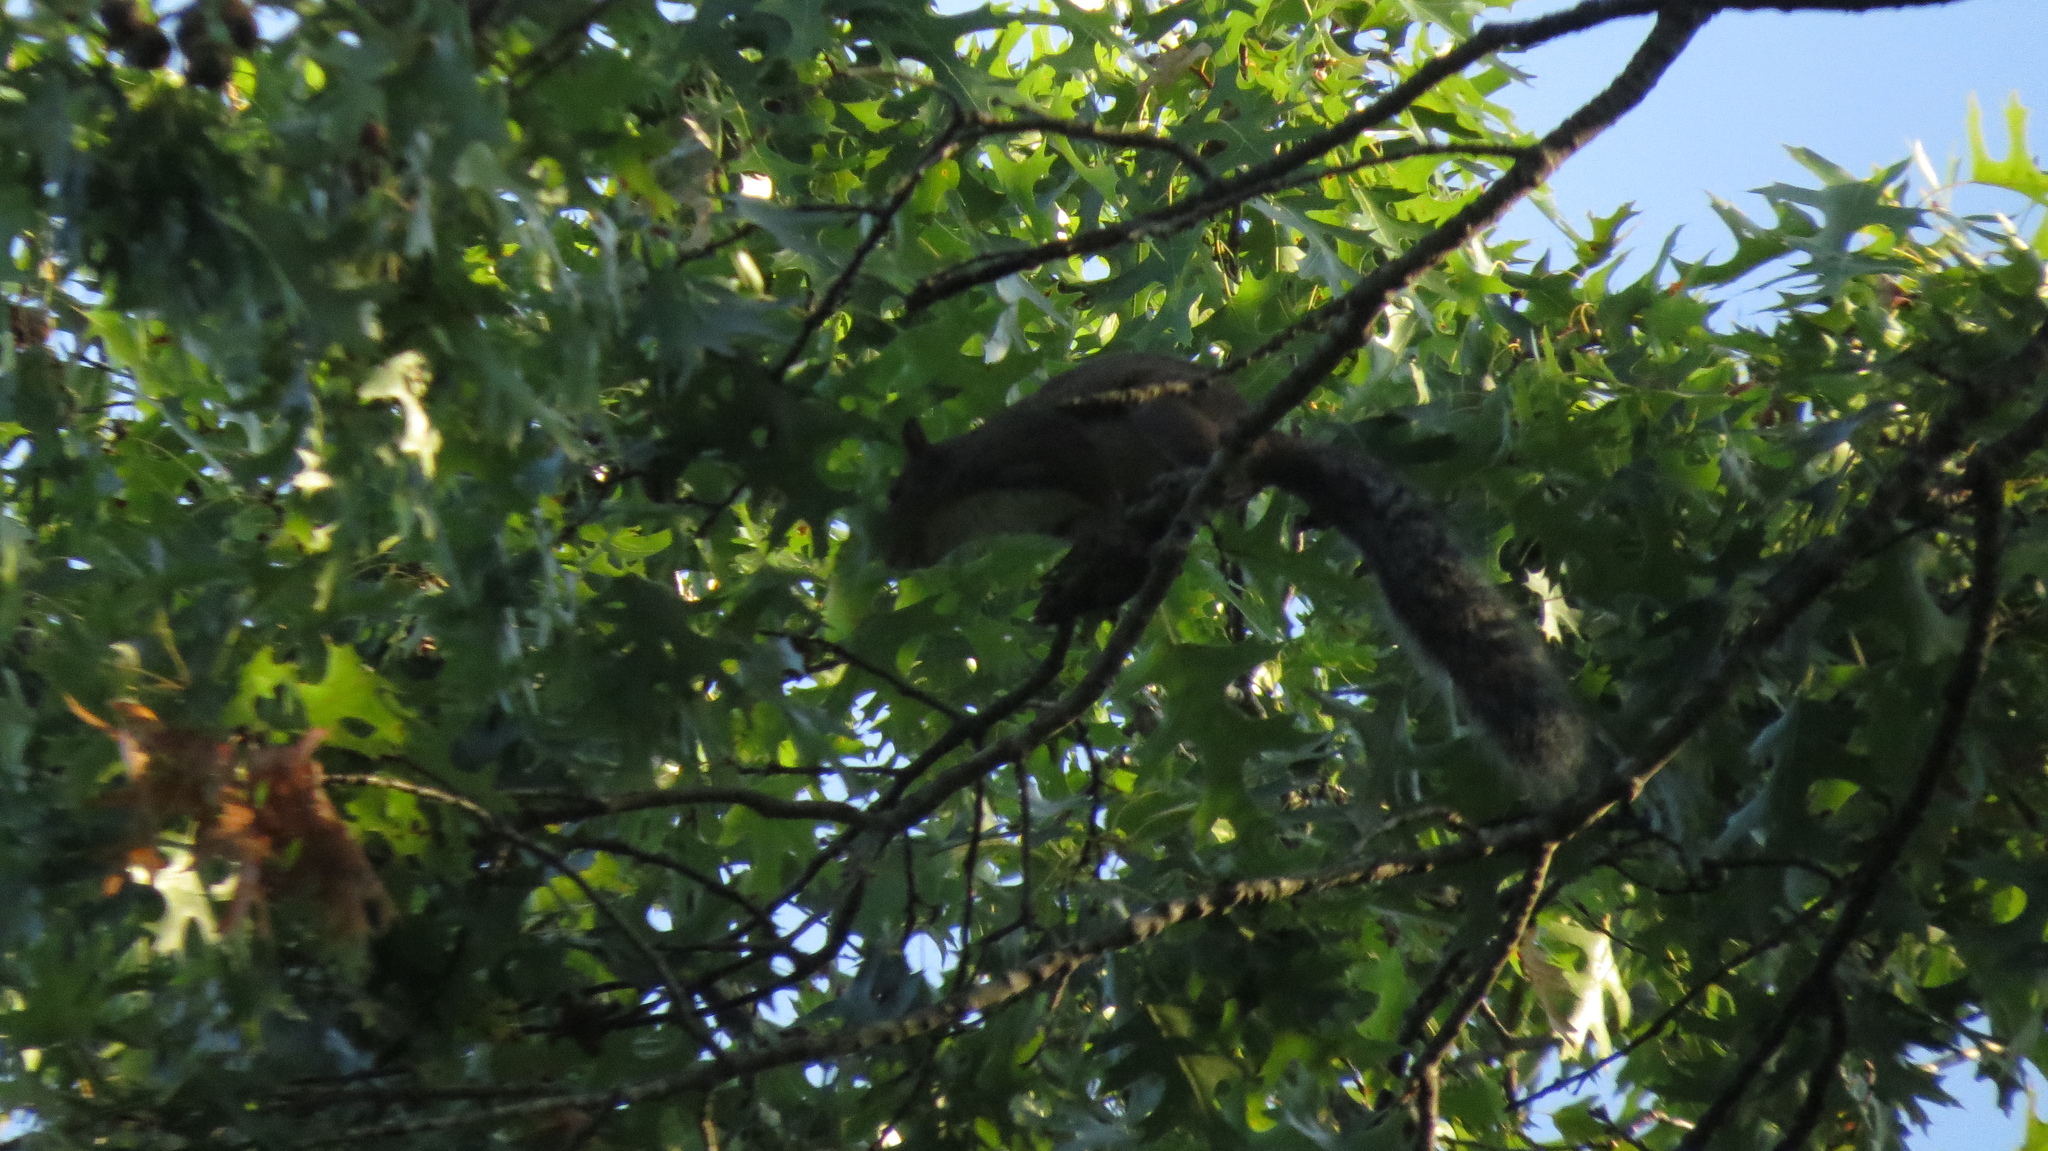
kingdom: Animalia
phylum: Chordata
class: Mammalia
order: Rodentia
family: Sciuridae
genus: Sciurus
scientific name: Sciurus carolinensis
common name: Eastern gray squirrel
